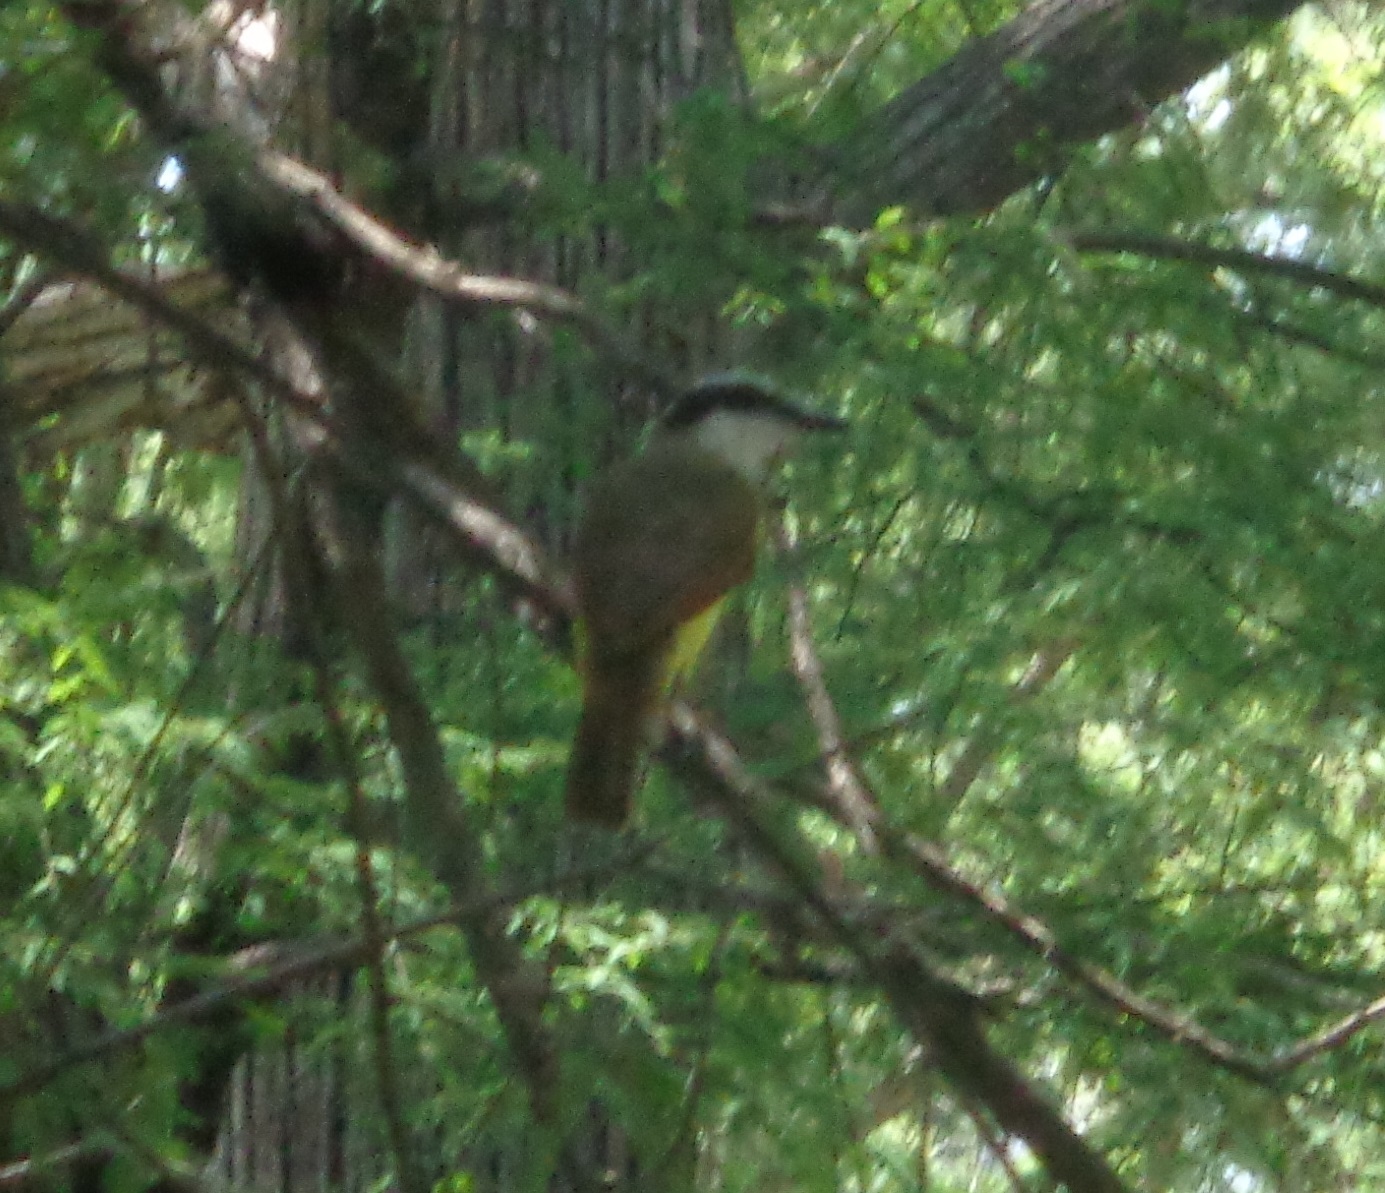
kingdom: Animalia
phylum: Chordata
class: Aves
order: Passeriformes
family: Tyrannidae
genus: Pitangus
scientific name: Pitangus sulphuratus
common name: Great kiskadee
